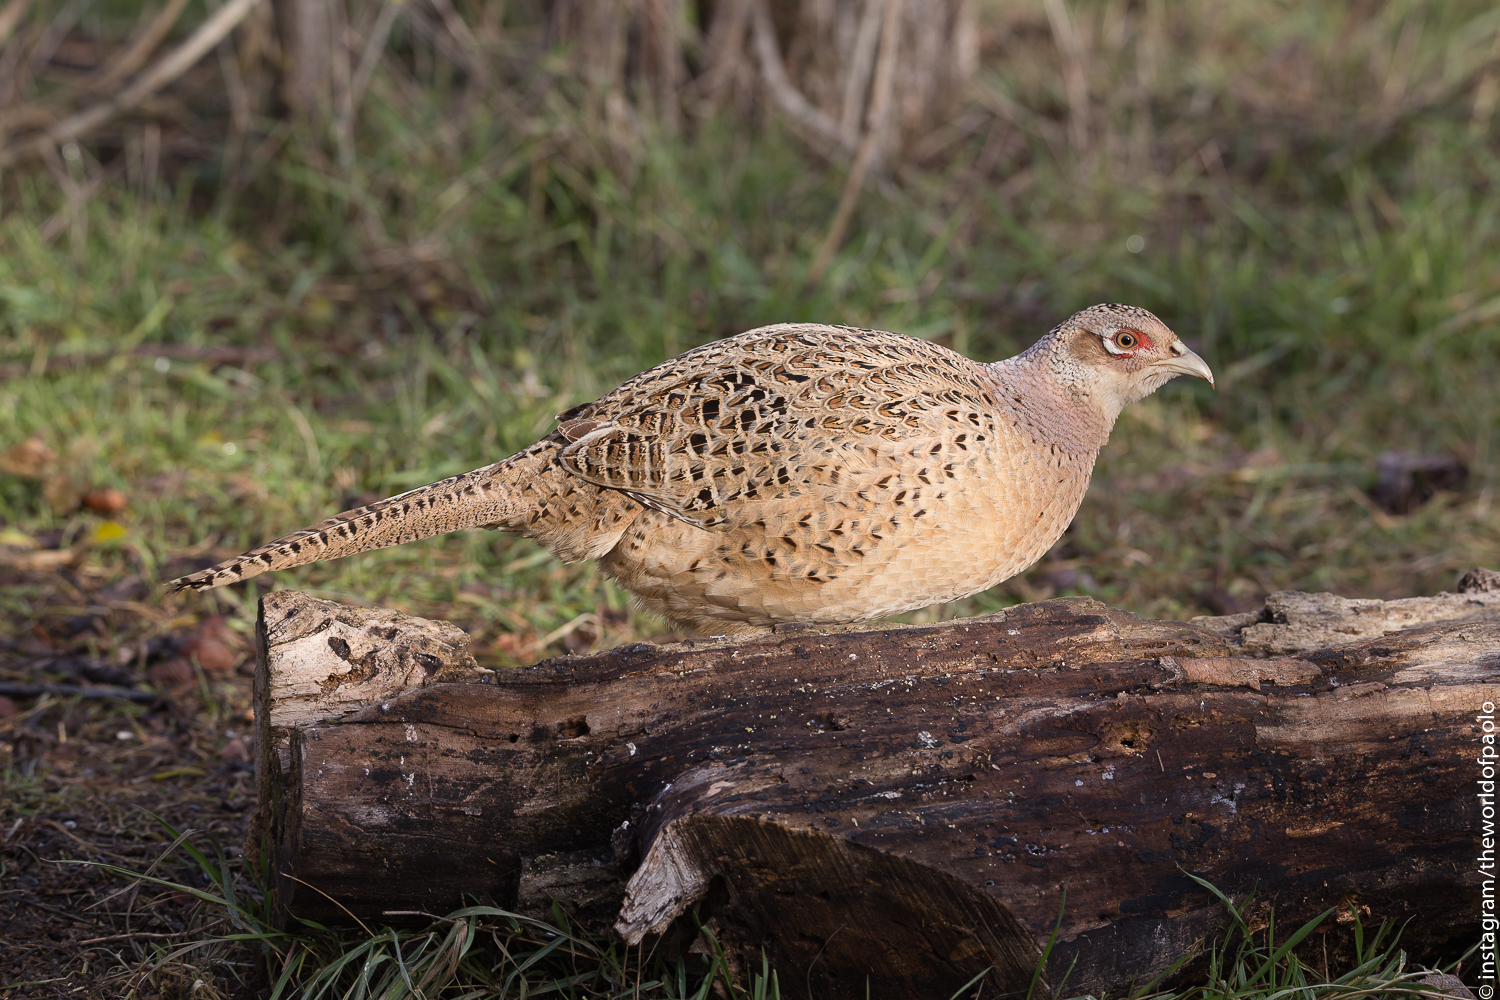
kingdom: Animalia
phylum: Chordata
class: Aves
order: Galliformes
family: Phasianidae
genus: Phasianus
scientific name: Phasianus colchicus
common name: Common pheasant
